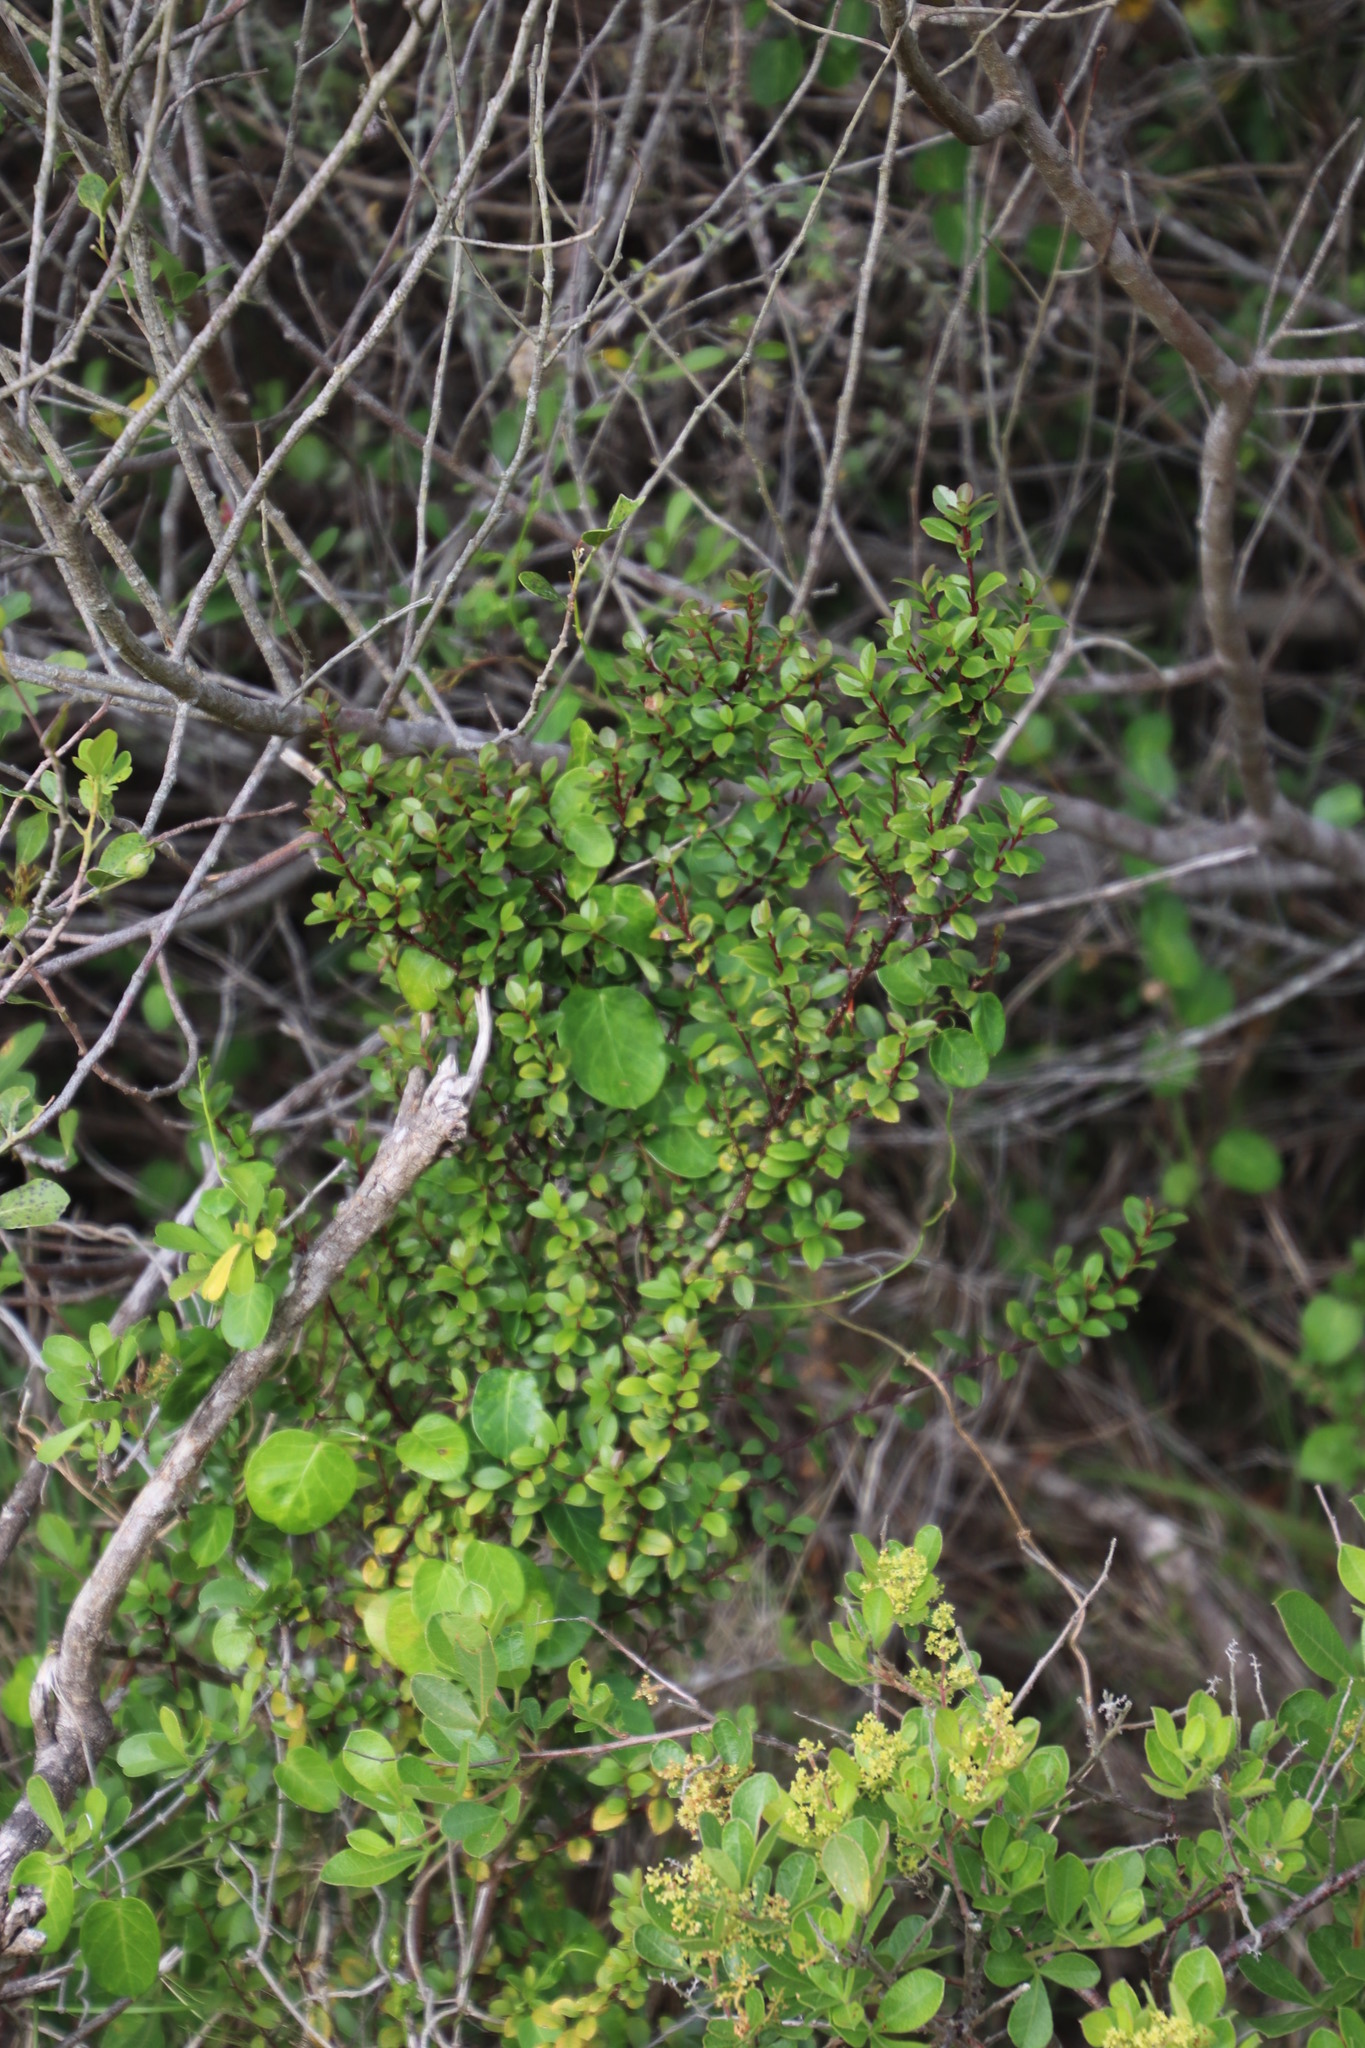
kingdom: Plantae
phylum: Tracheophyta
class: Magnoliopsida
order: Ericales
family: Primulaceae
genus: Myrsine
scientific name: Myrsine africana
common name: African-boxwood
